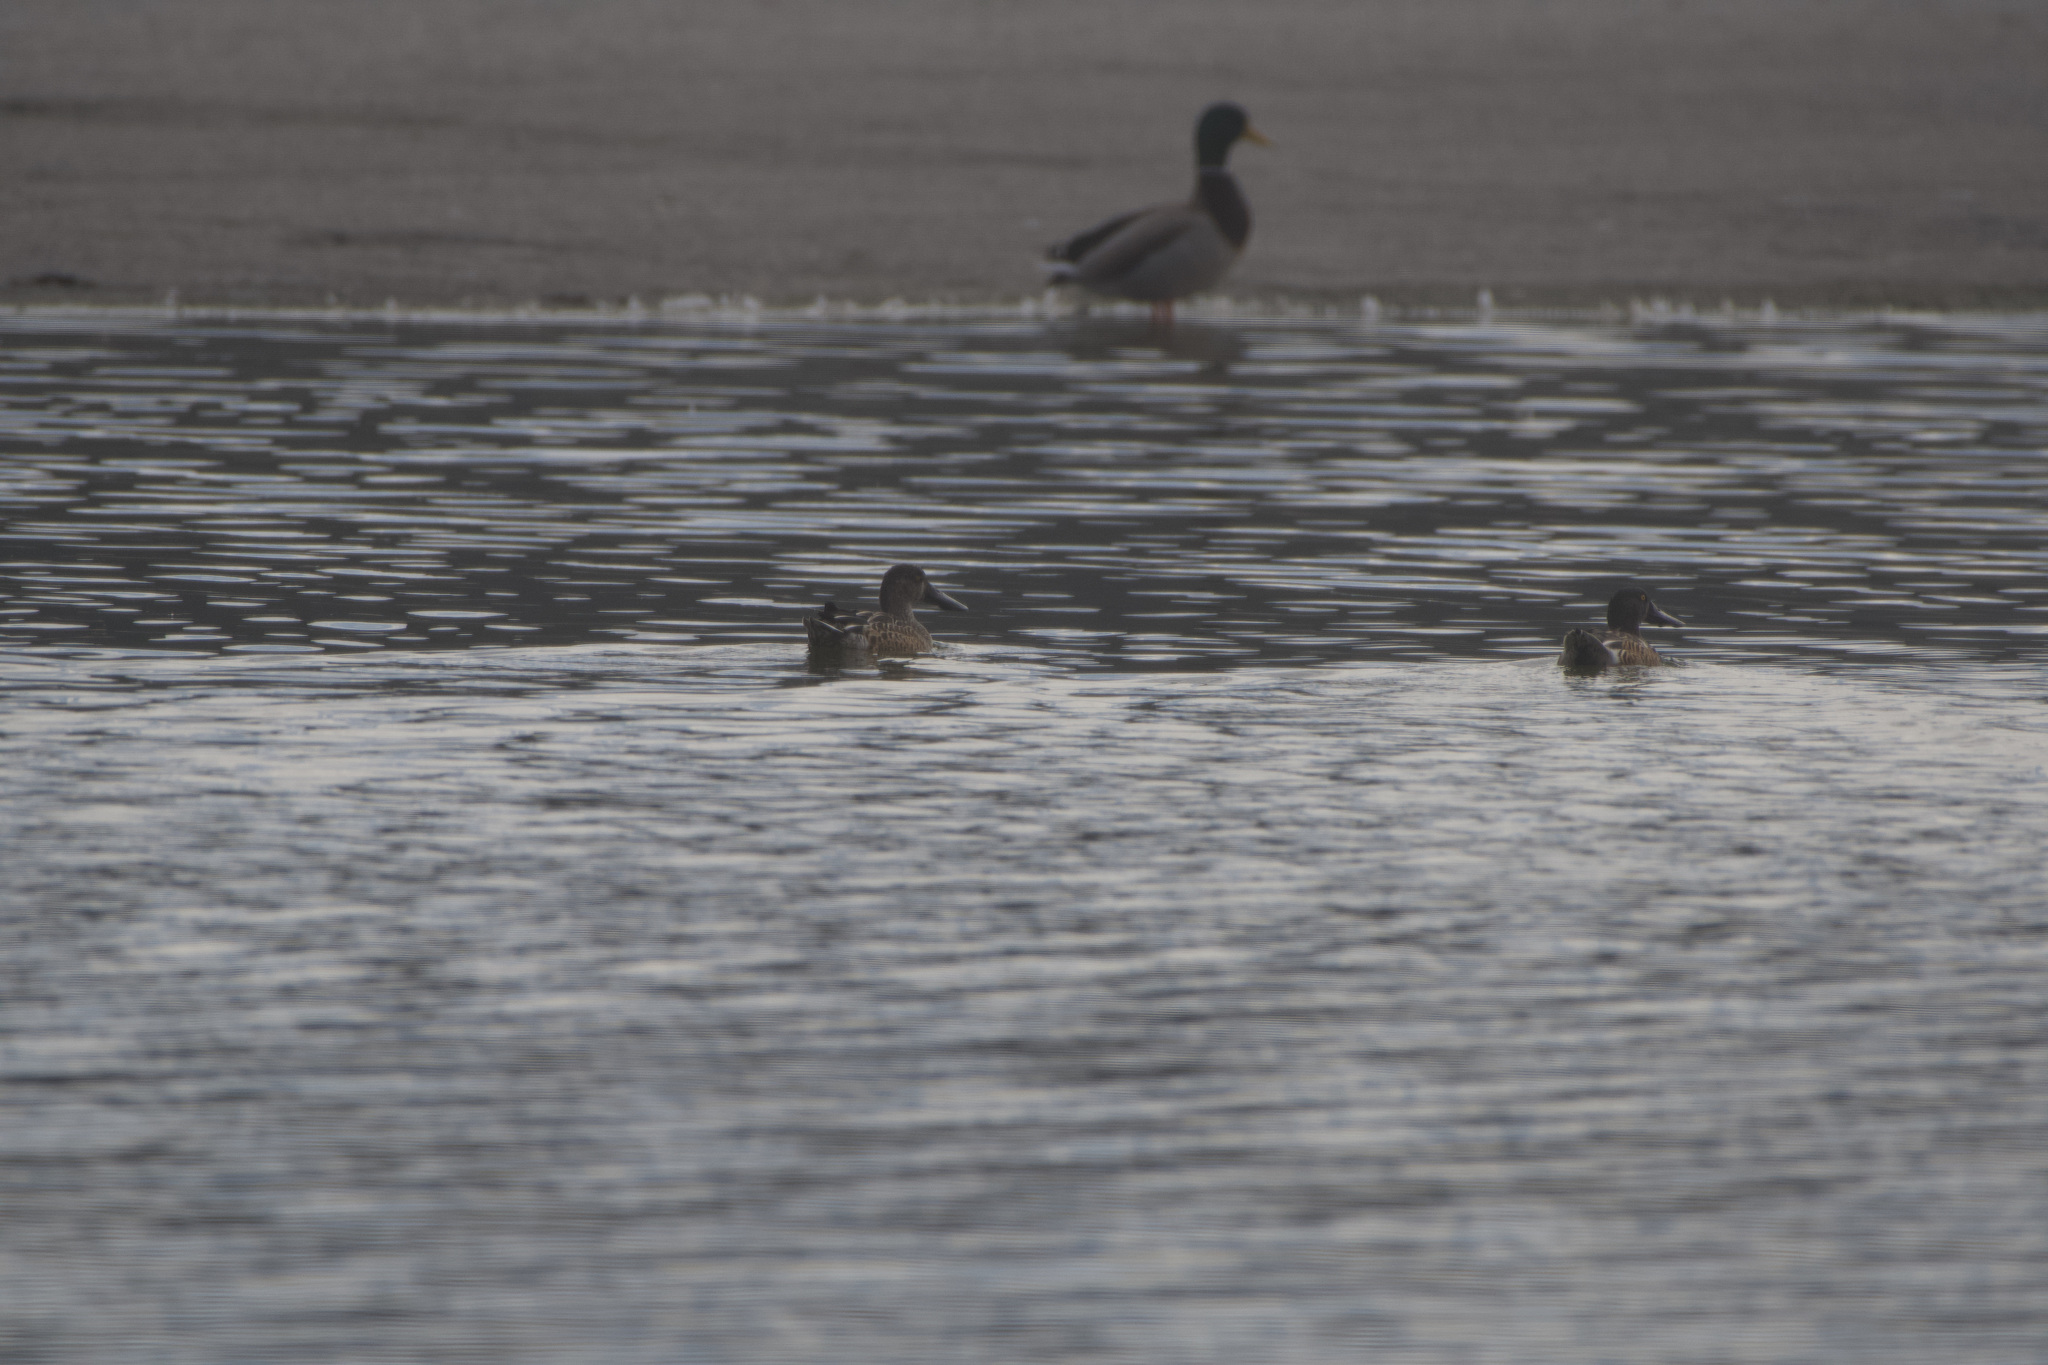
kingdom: Animalia
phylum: Chordata
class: Aves
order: Anseriformes
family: Anatidae
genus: Spatula
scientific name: Spatula clypeata
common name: Northern shoveler
